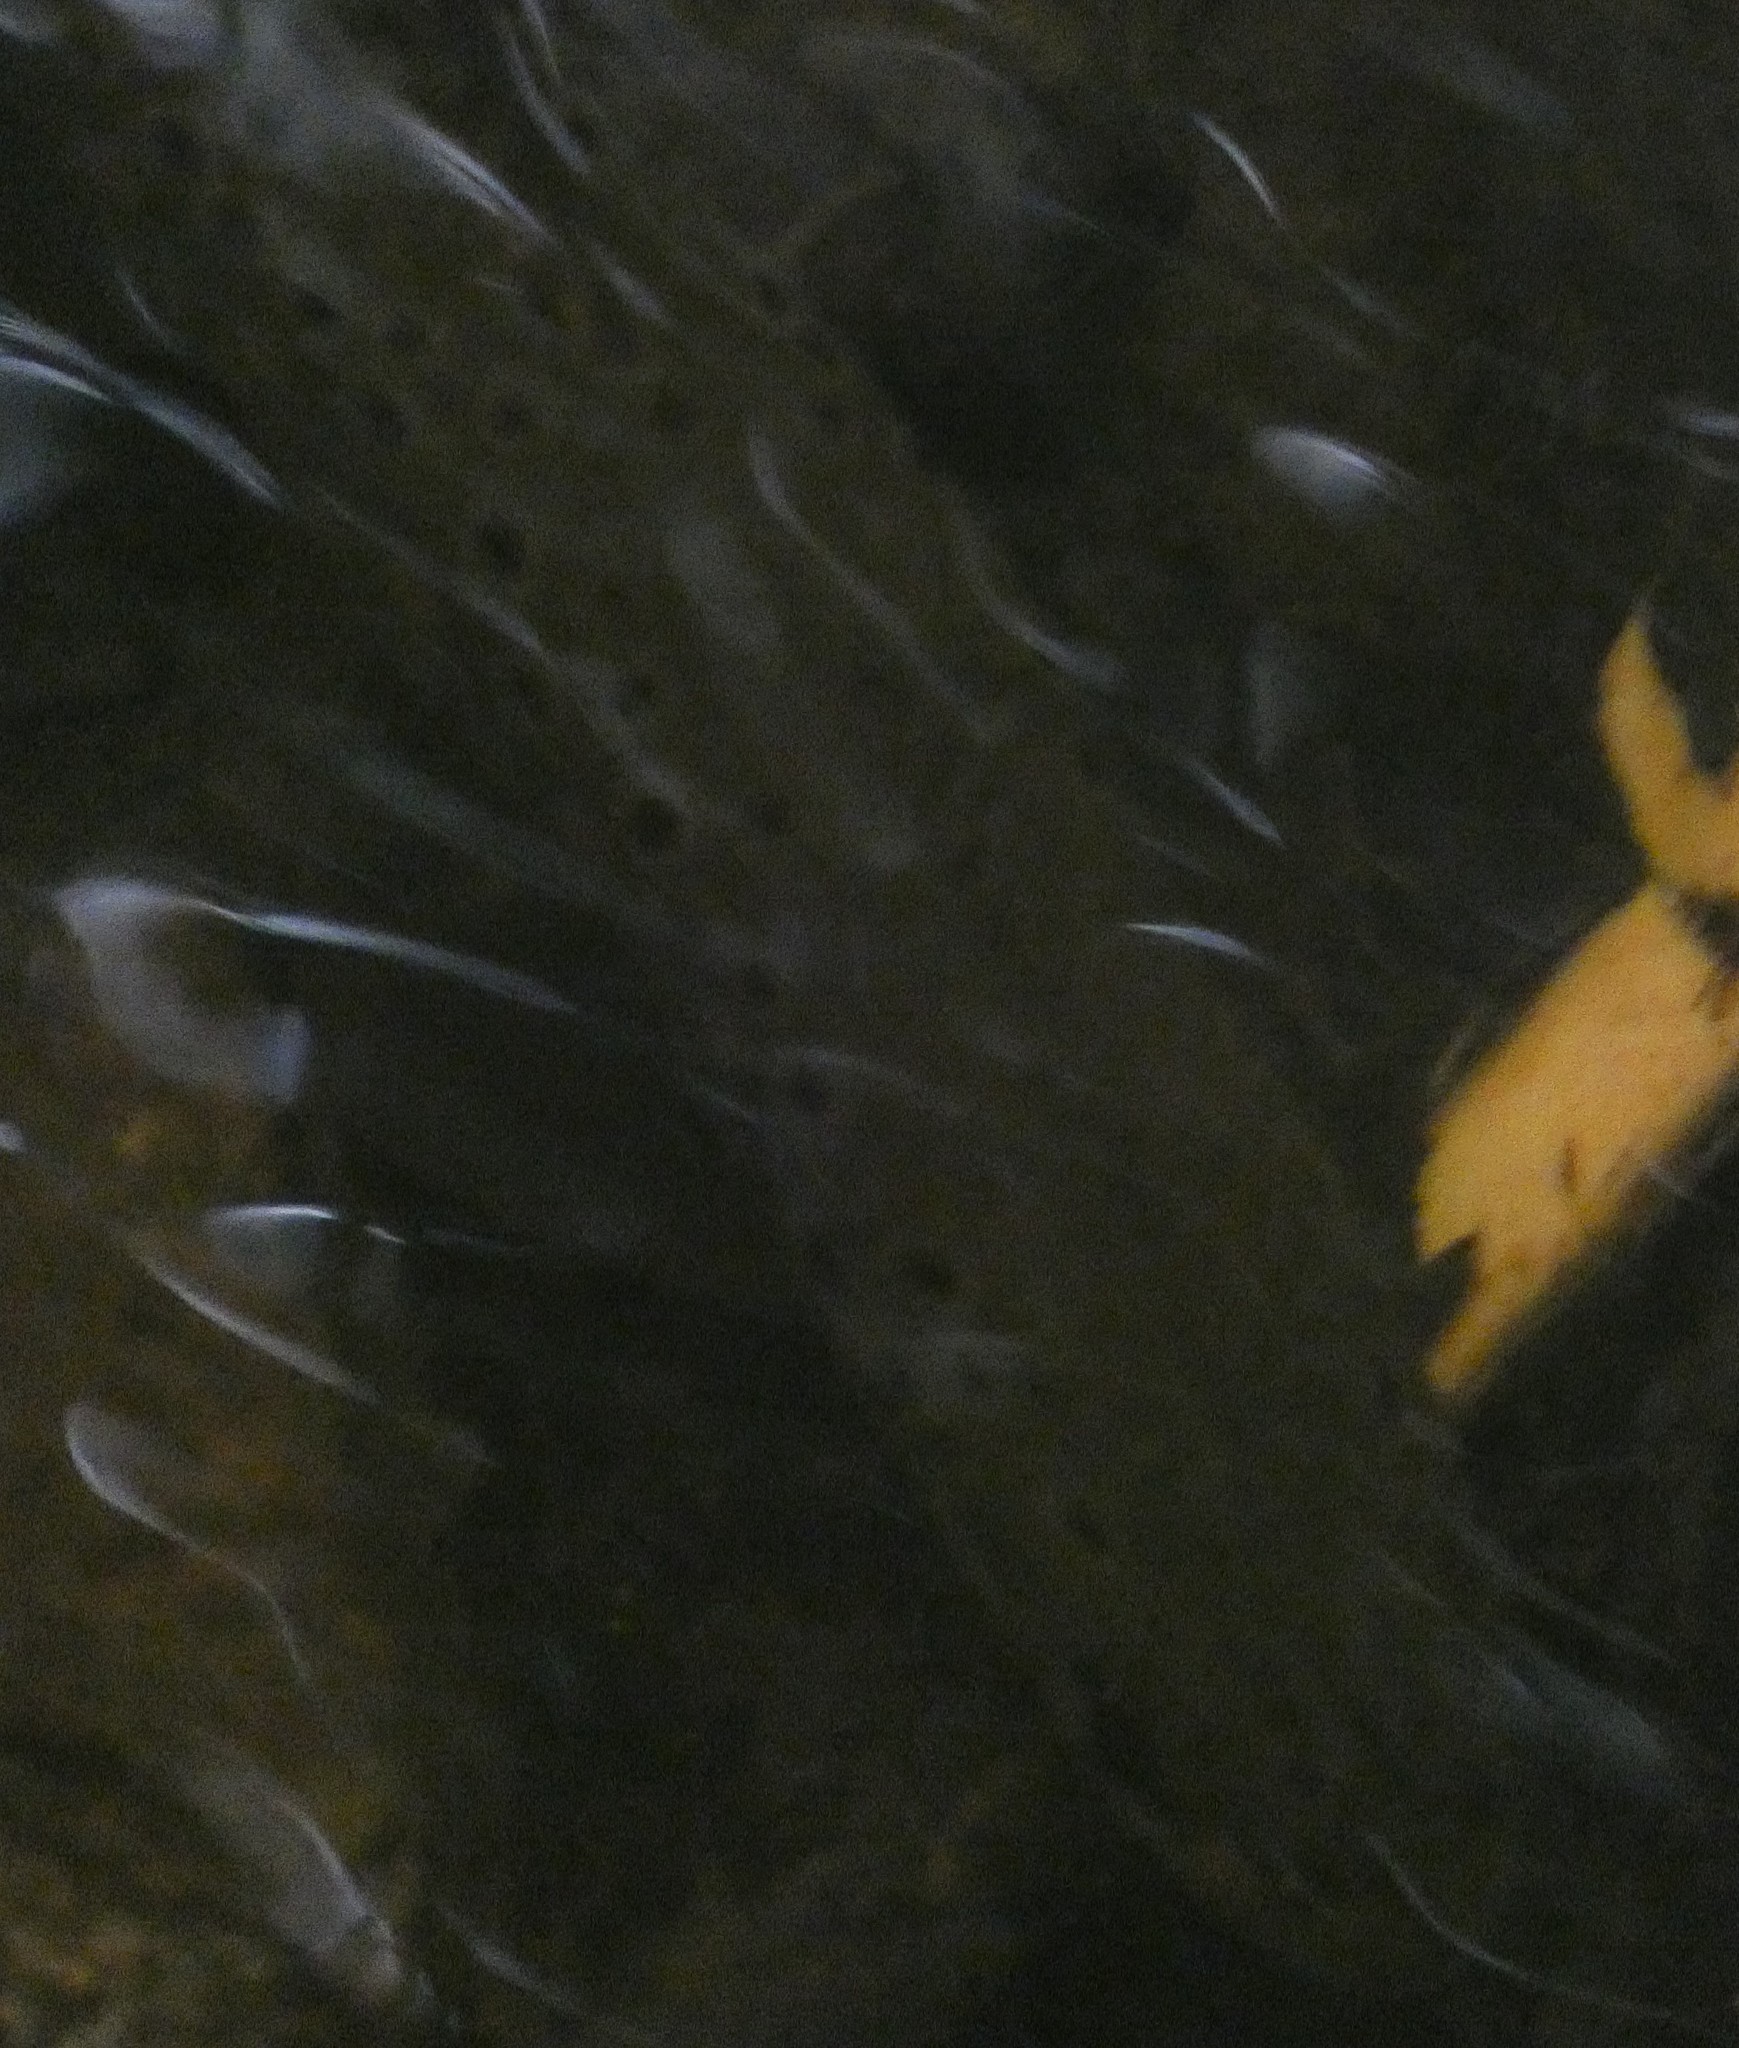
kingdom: Animalia
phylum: Chordata
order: Salmoniformes
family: Salmonidae
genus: Salmo
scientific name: Salmo trutta
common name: Brown trout
